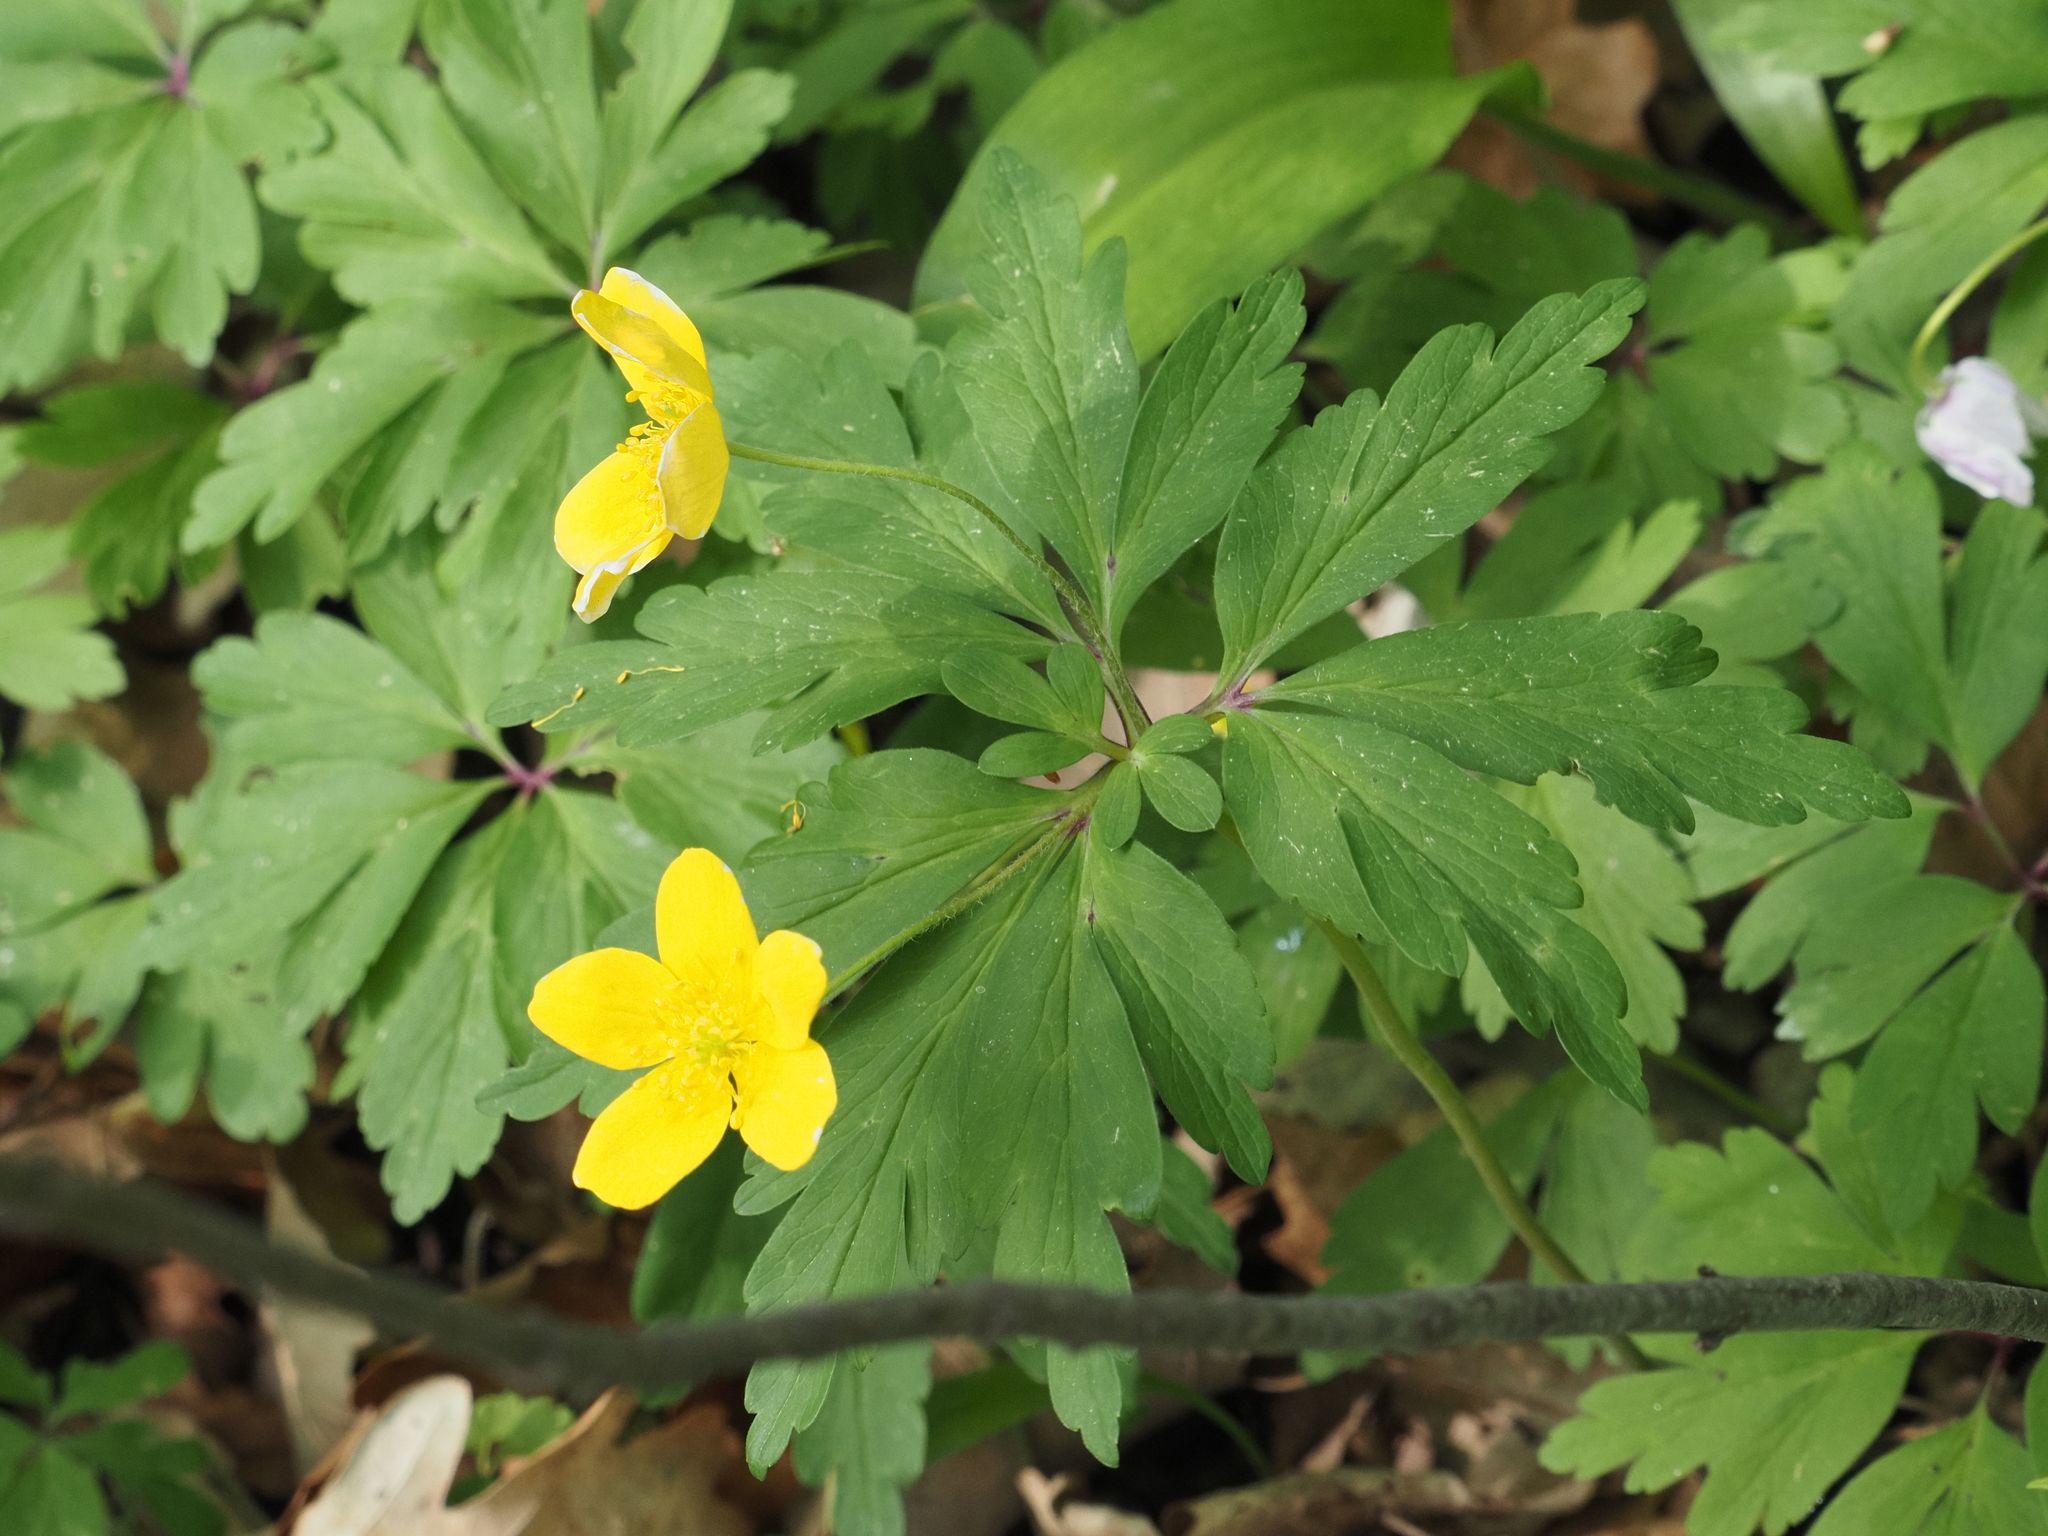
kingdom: Plantae
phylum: Tracheophyta
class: Magnoliopsida
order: Ranunculales
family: Ranunculaceae
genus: Anemone
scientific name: Anemone ranunculoides
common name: Yellow anemone
